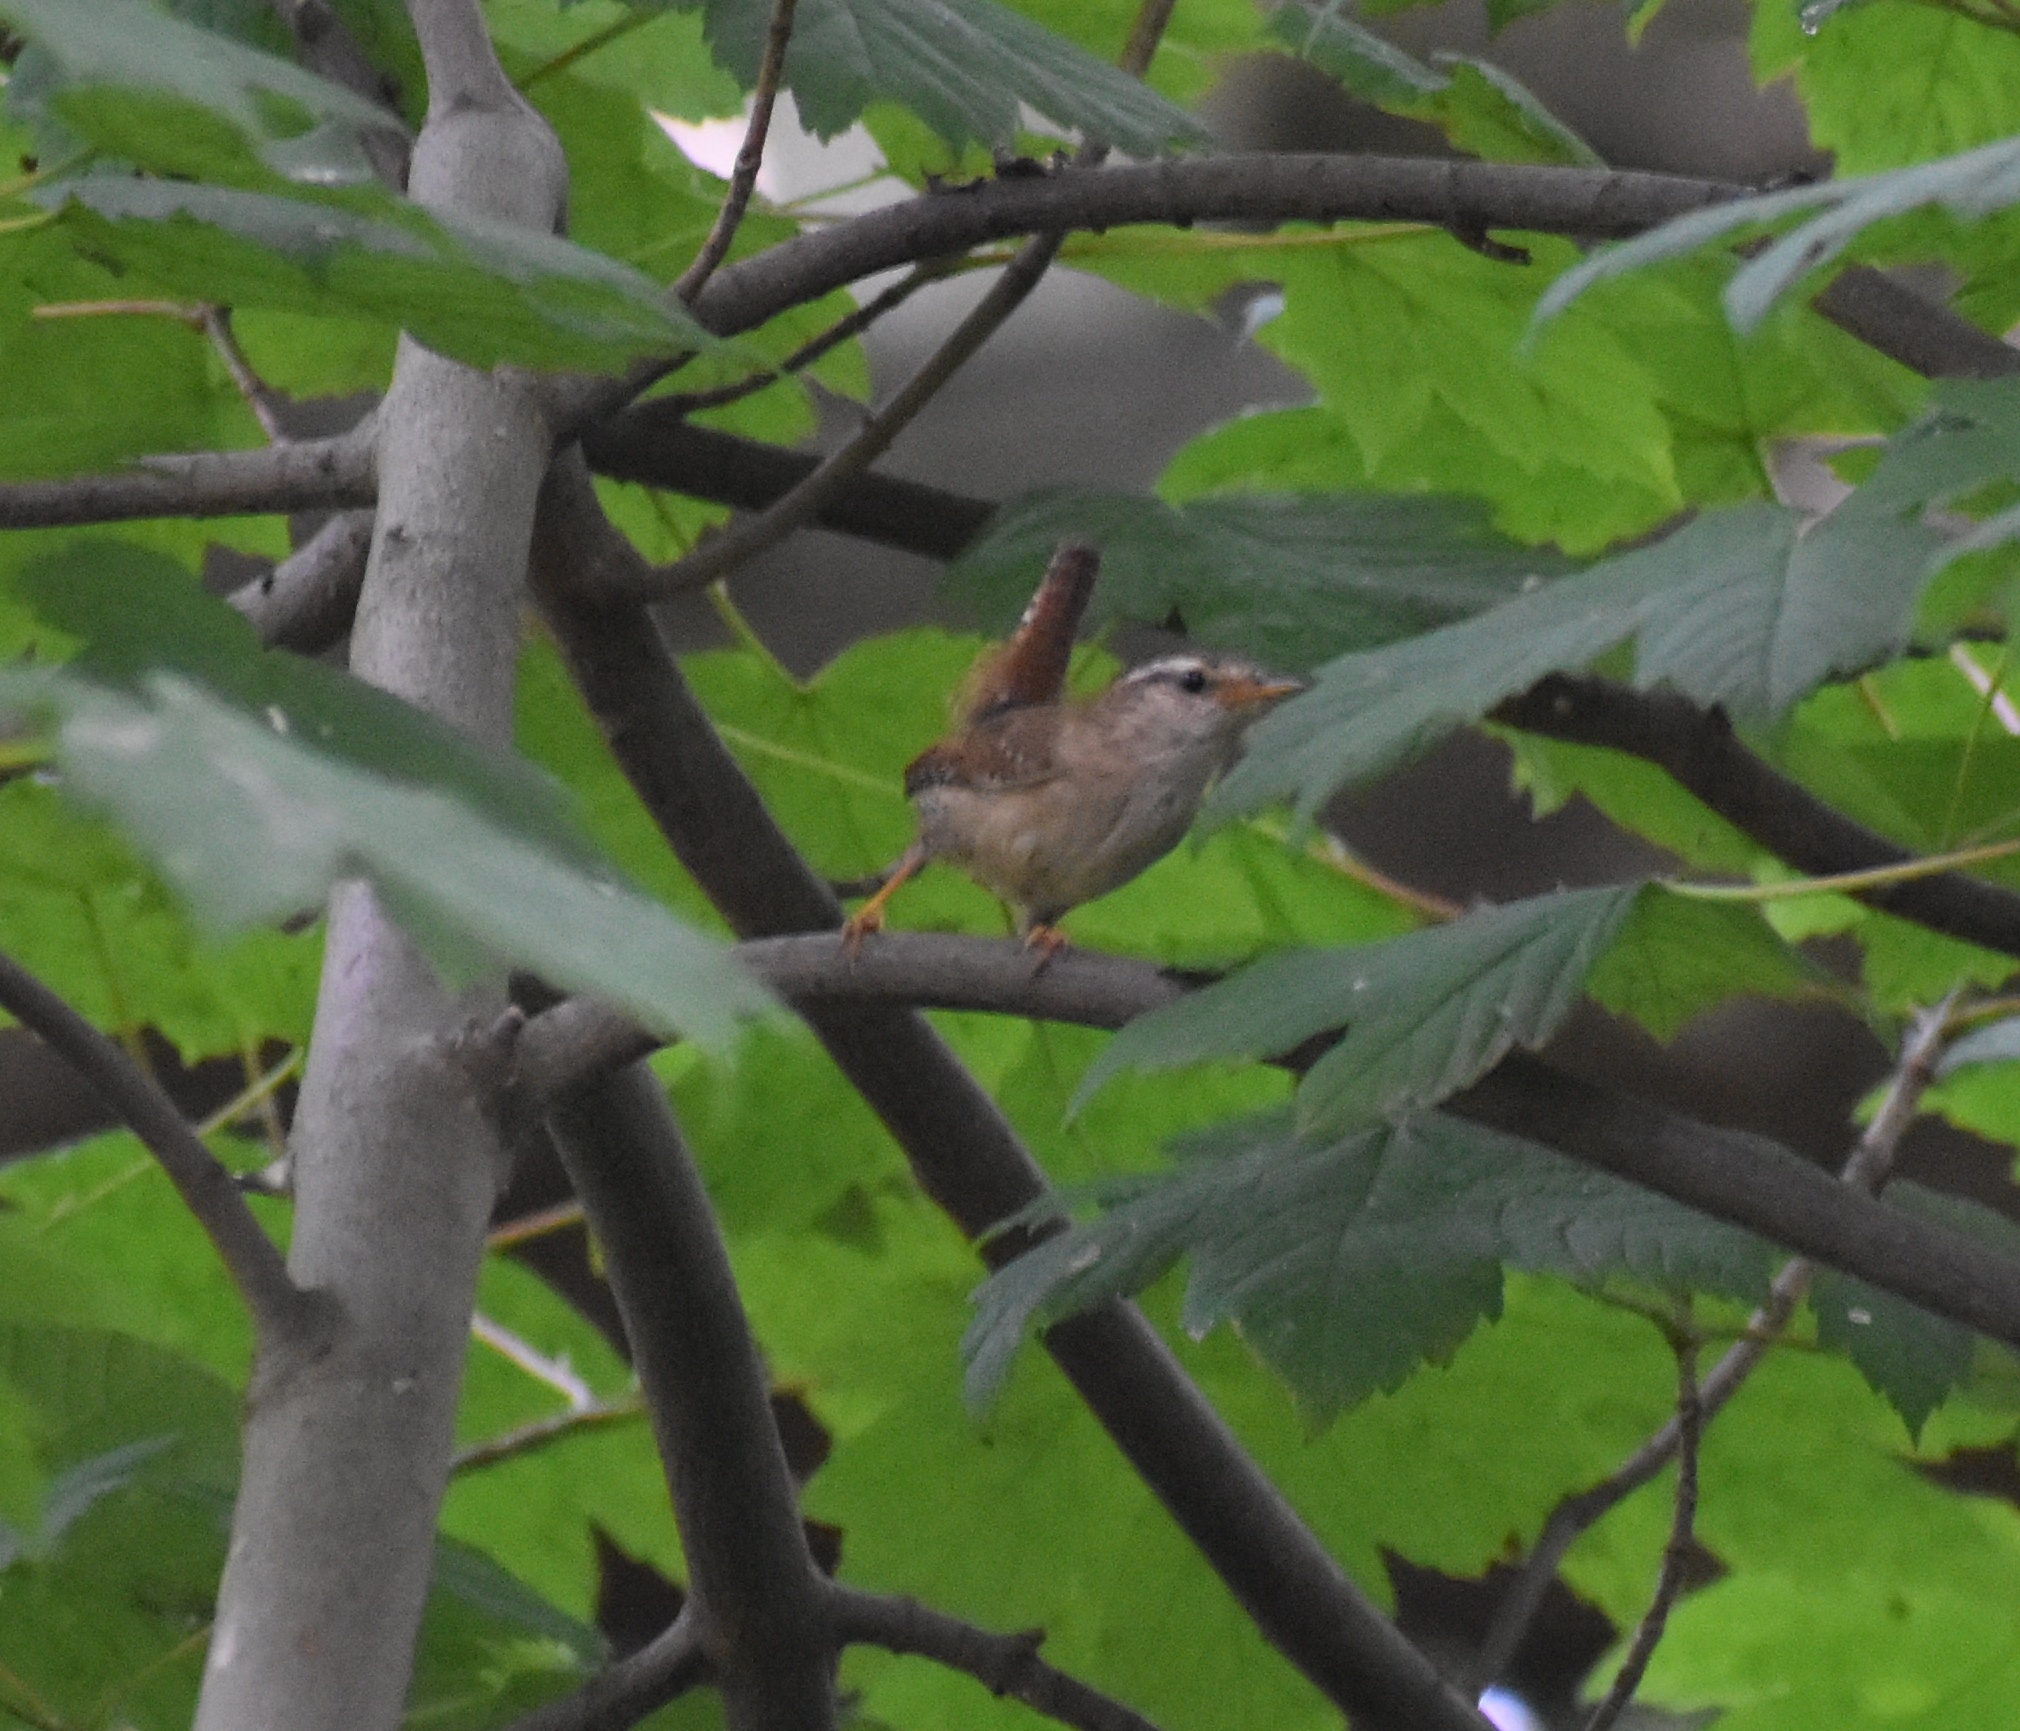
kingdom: Animalia
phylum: Chordata
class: Aves
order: Passeriformes
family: Troglodytidae
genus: Troglodytes
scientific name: Troglodytes troglodytes
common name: Eurasian wren
